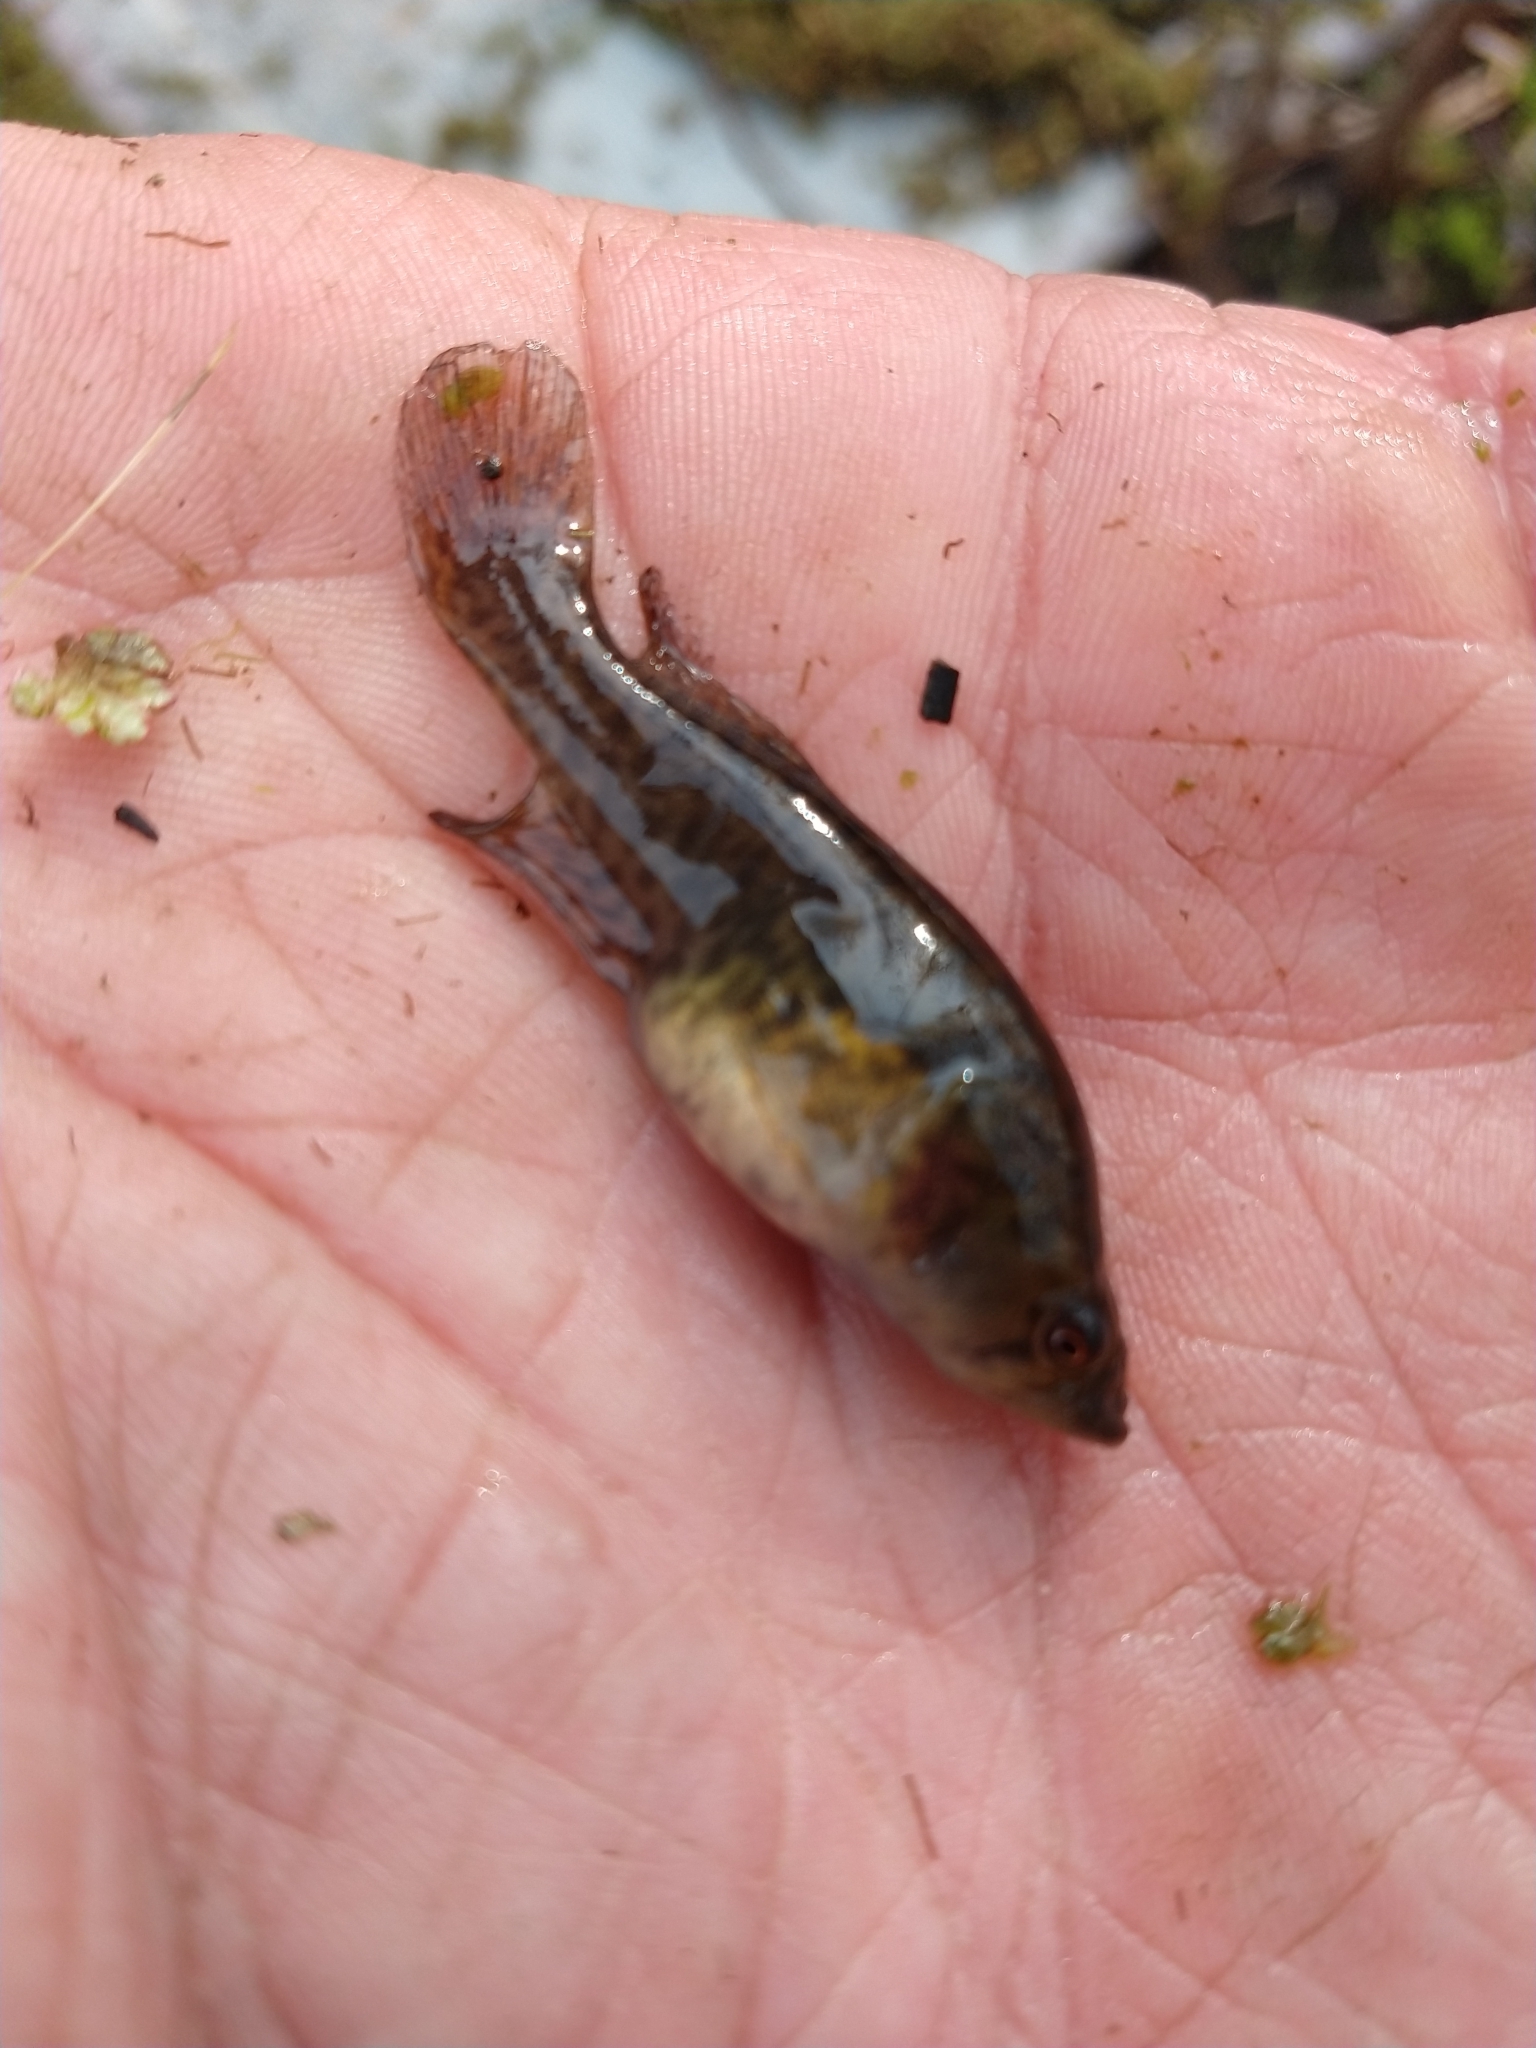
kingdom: Animalia
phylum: Chordata
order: Cyprinodontiformes
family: Rivulidae
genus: Austrolebias
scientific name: Austrolebias elongatus
